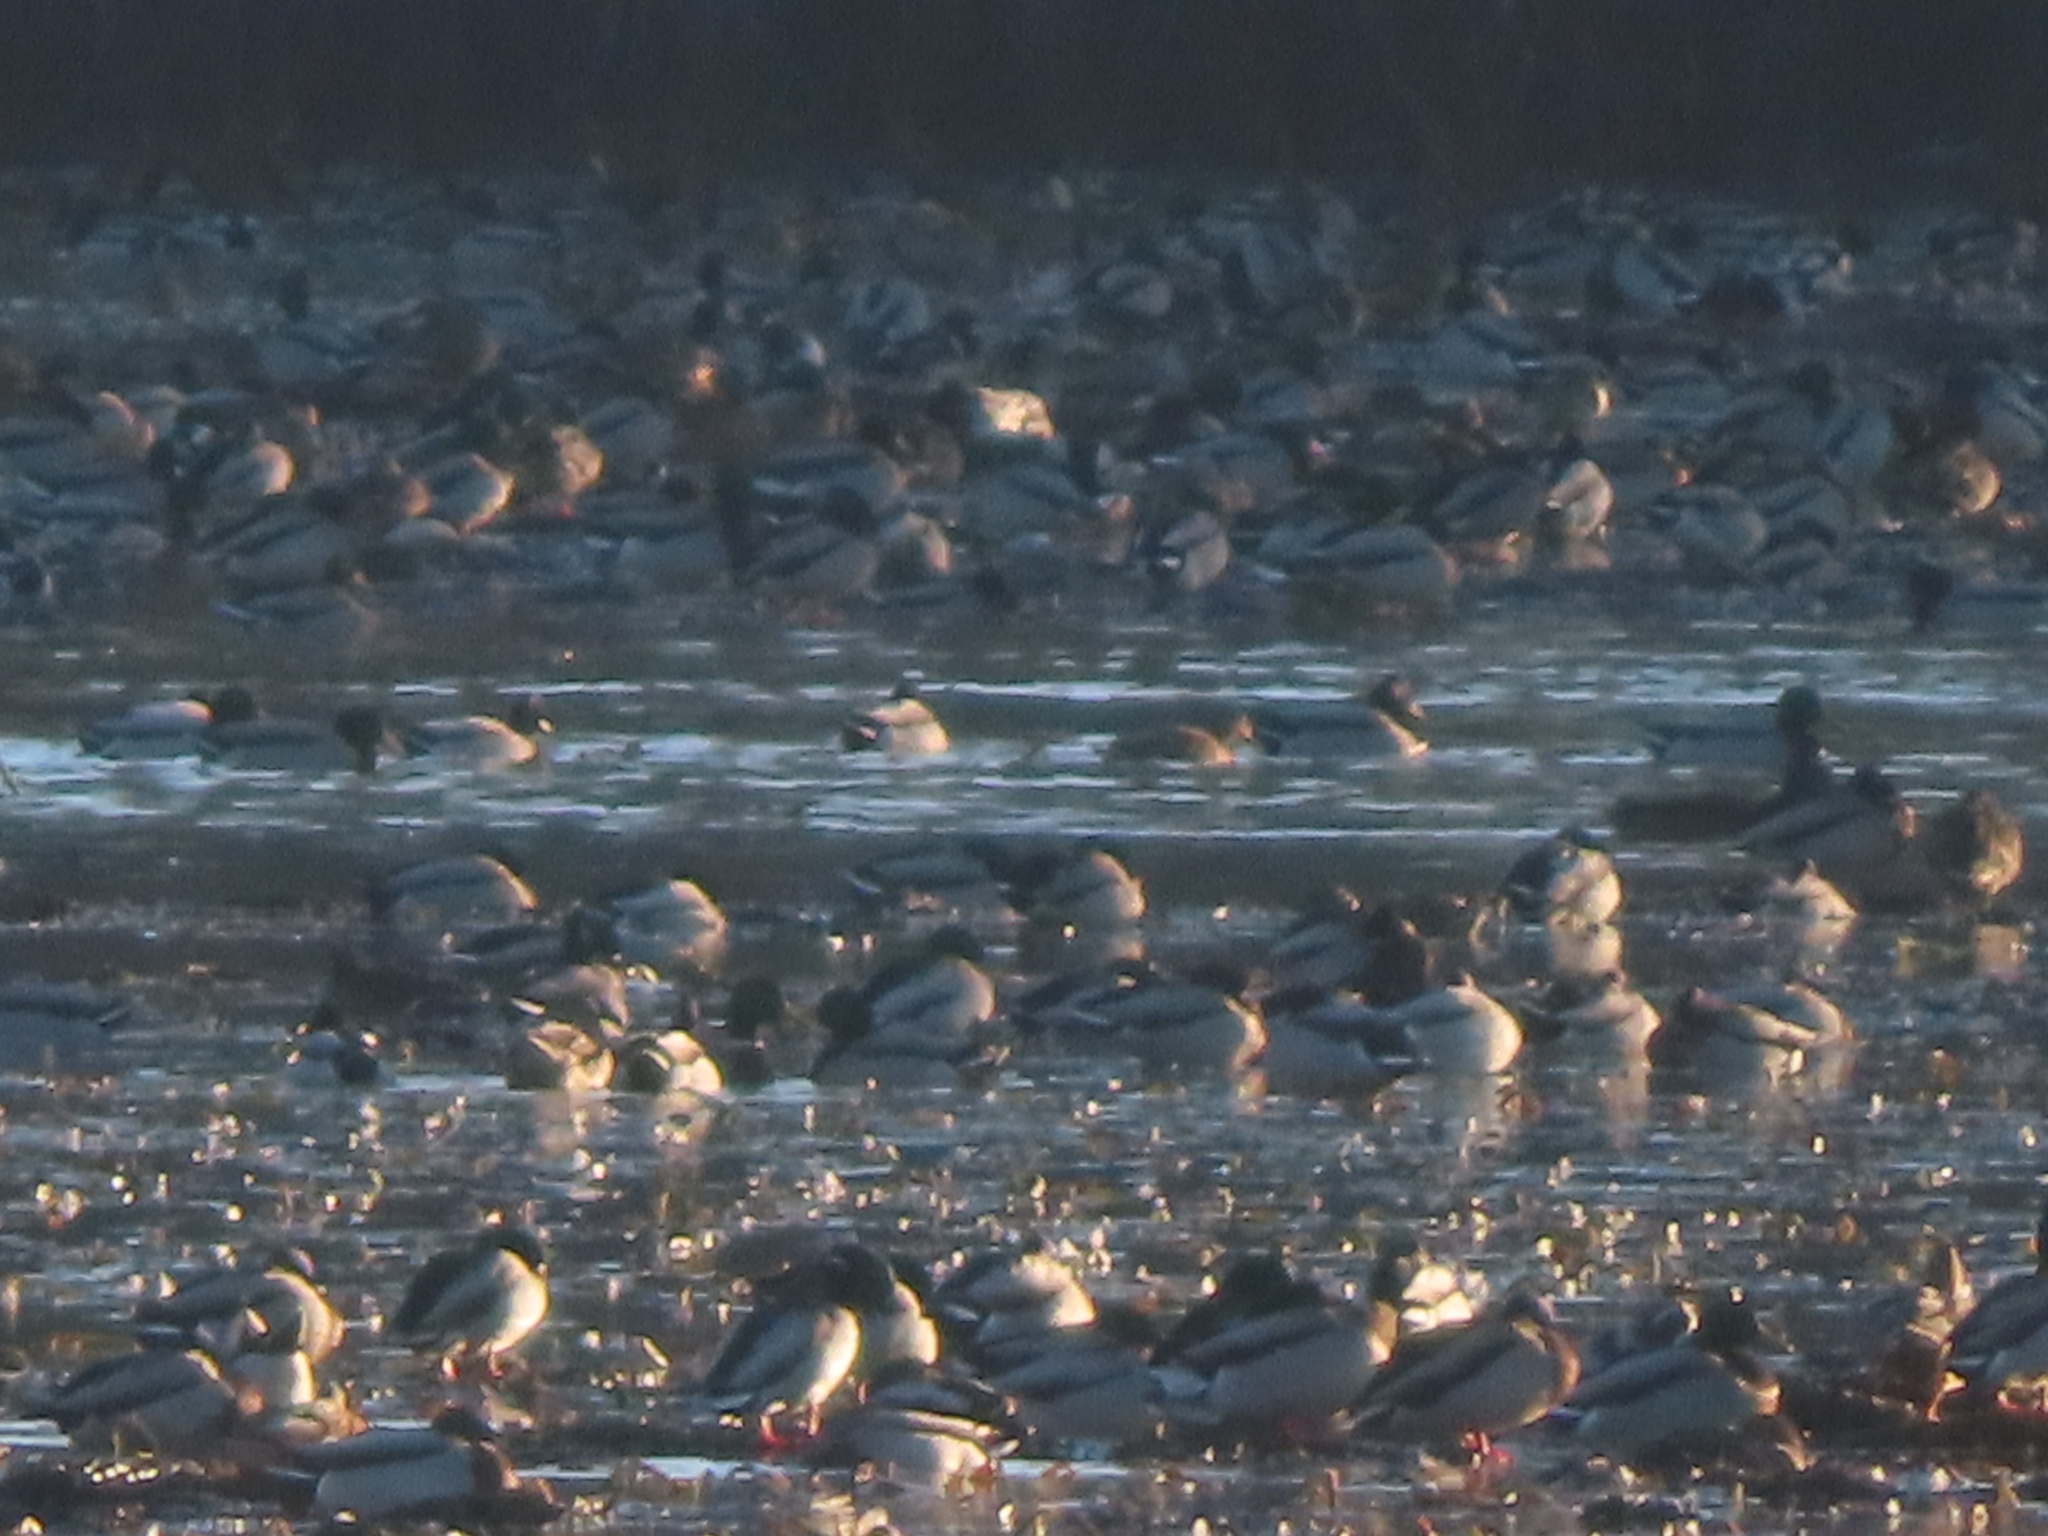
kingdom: Animalia
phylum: Chordata
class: Aves
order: Anseriformes
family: Anatidae
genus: Anas
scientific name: Anas platyrhynchos
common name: Mallard
